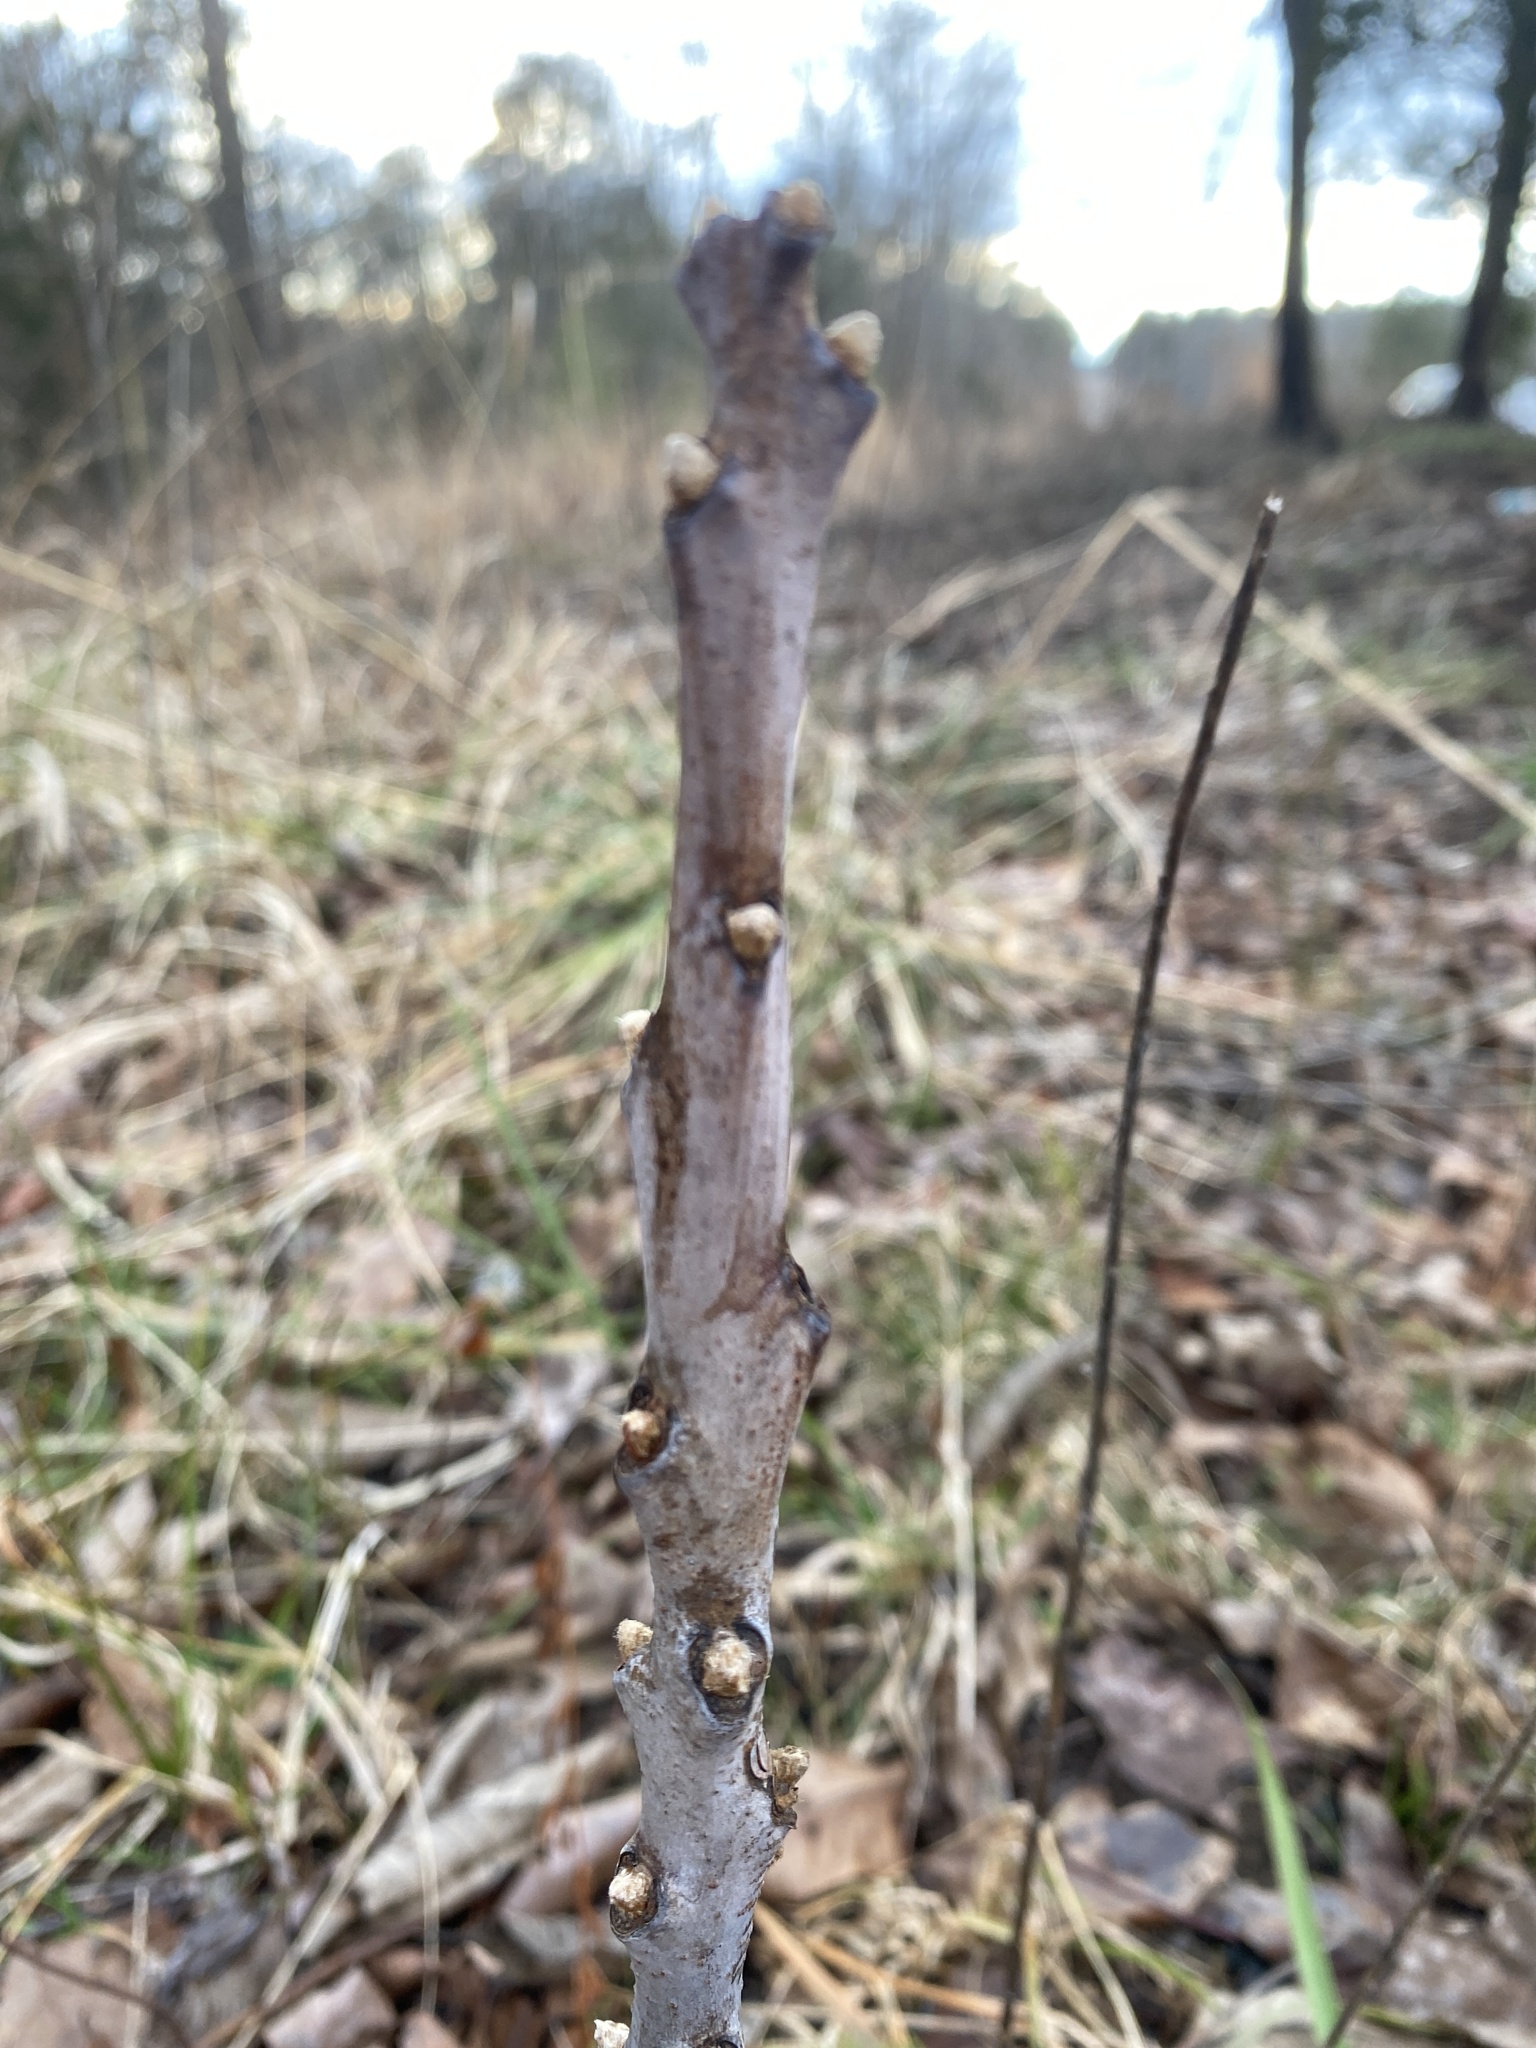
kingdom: Plantae
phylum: Tracheophyta
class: Magnoliopsida
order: Sapindales
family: Anacardiaceae
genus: Rhus
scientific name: Rhus glabra
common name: Scarlet sumac
